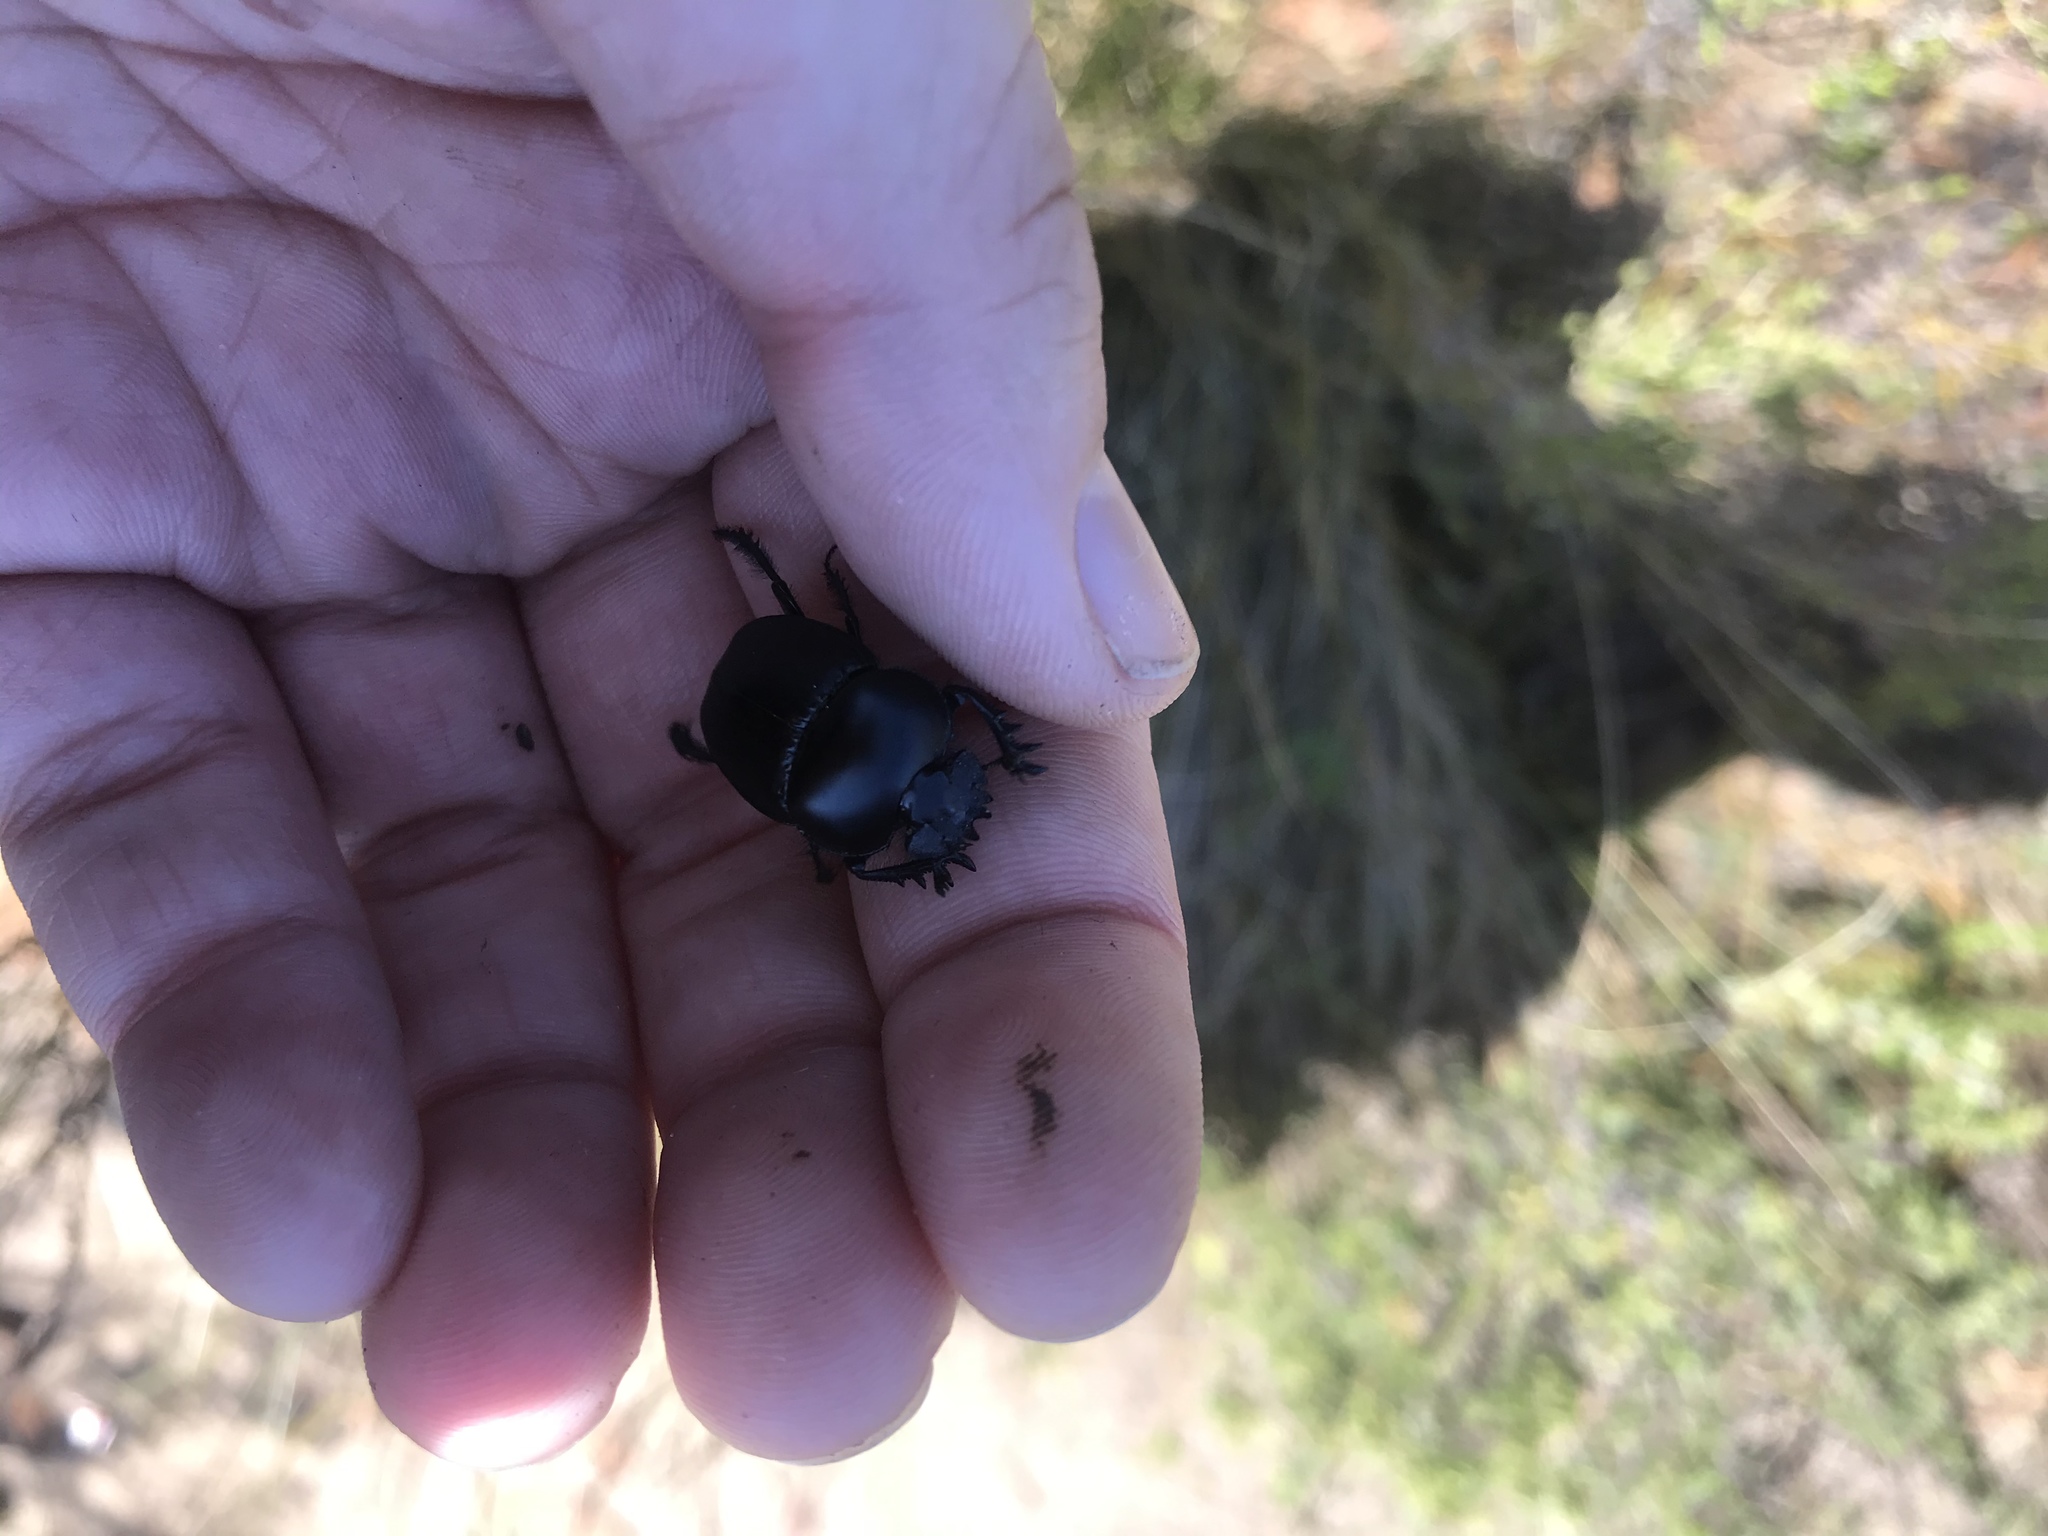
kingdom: Animalia
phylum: Arthropoda
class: Insecta
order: Coleoptera
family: Scarabaeidae
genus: Scarabaeus
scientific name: Scarabaeus convexus
